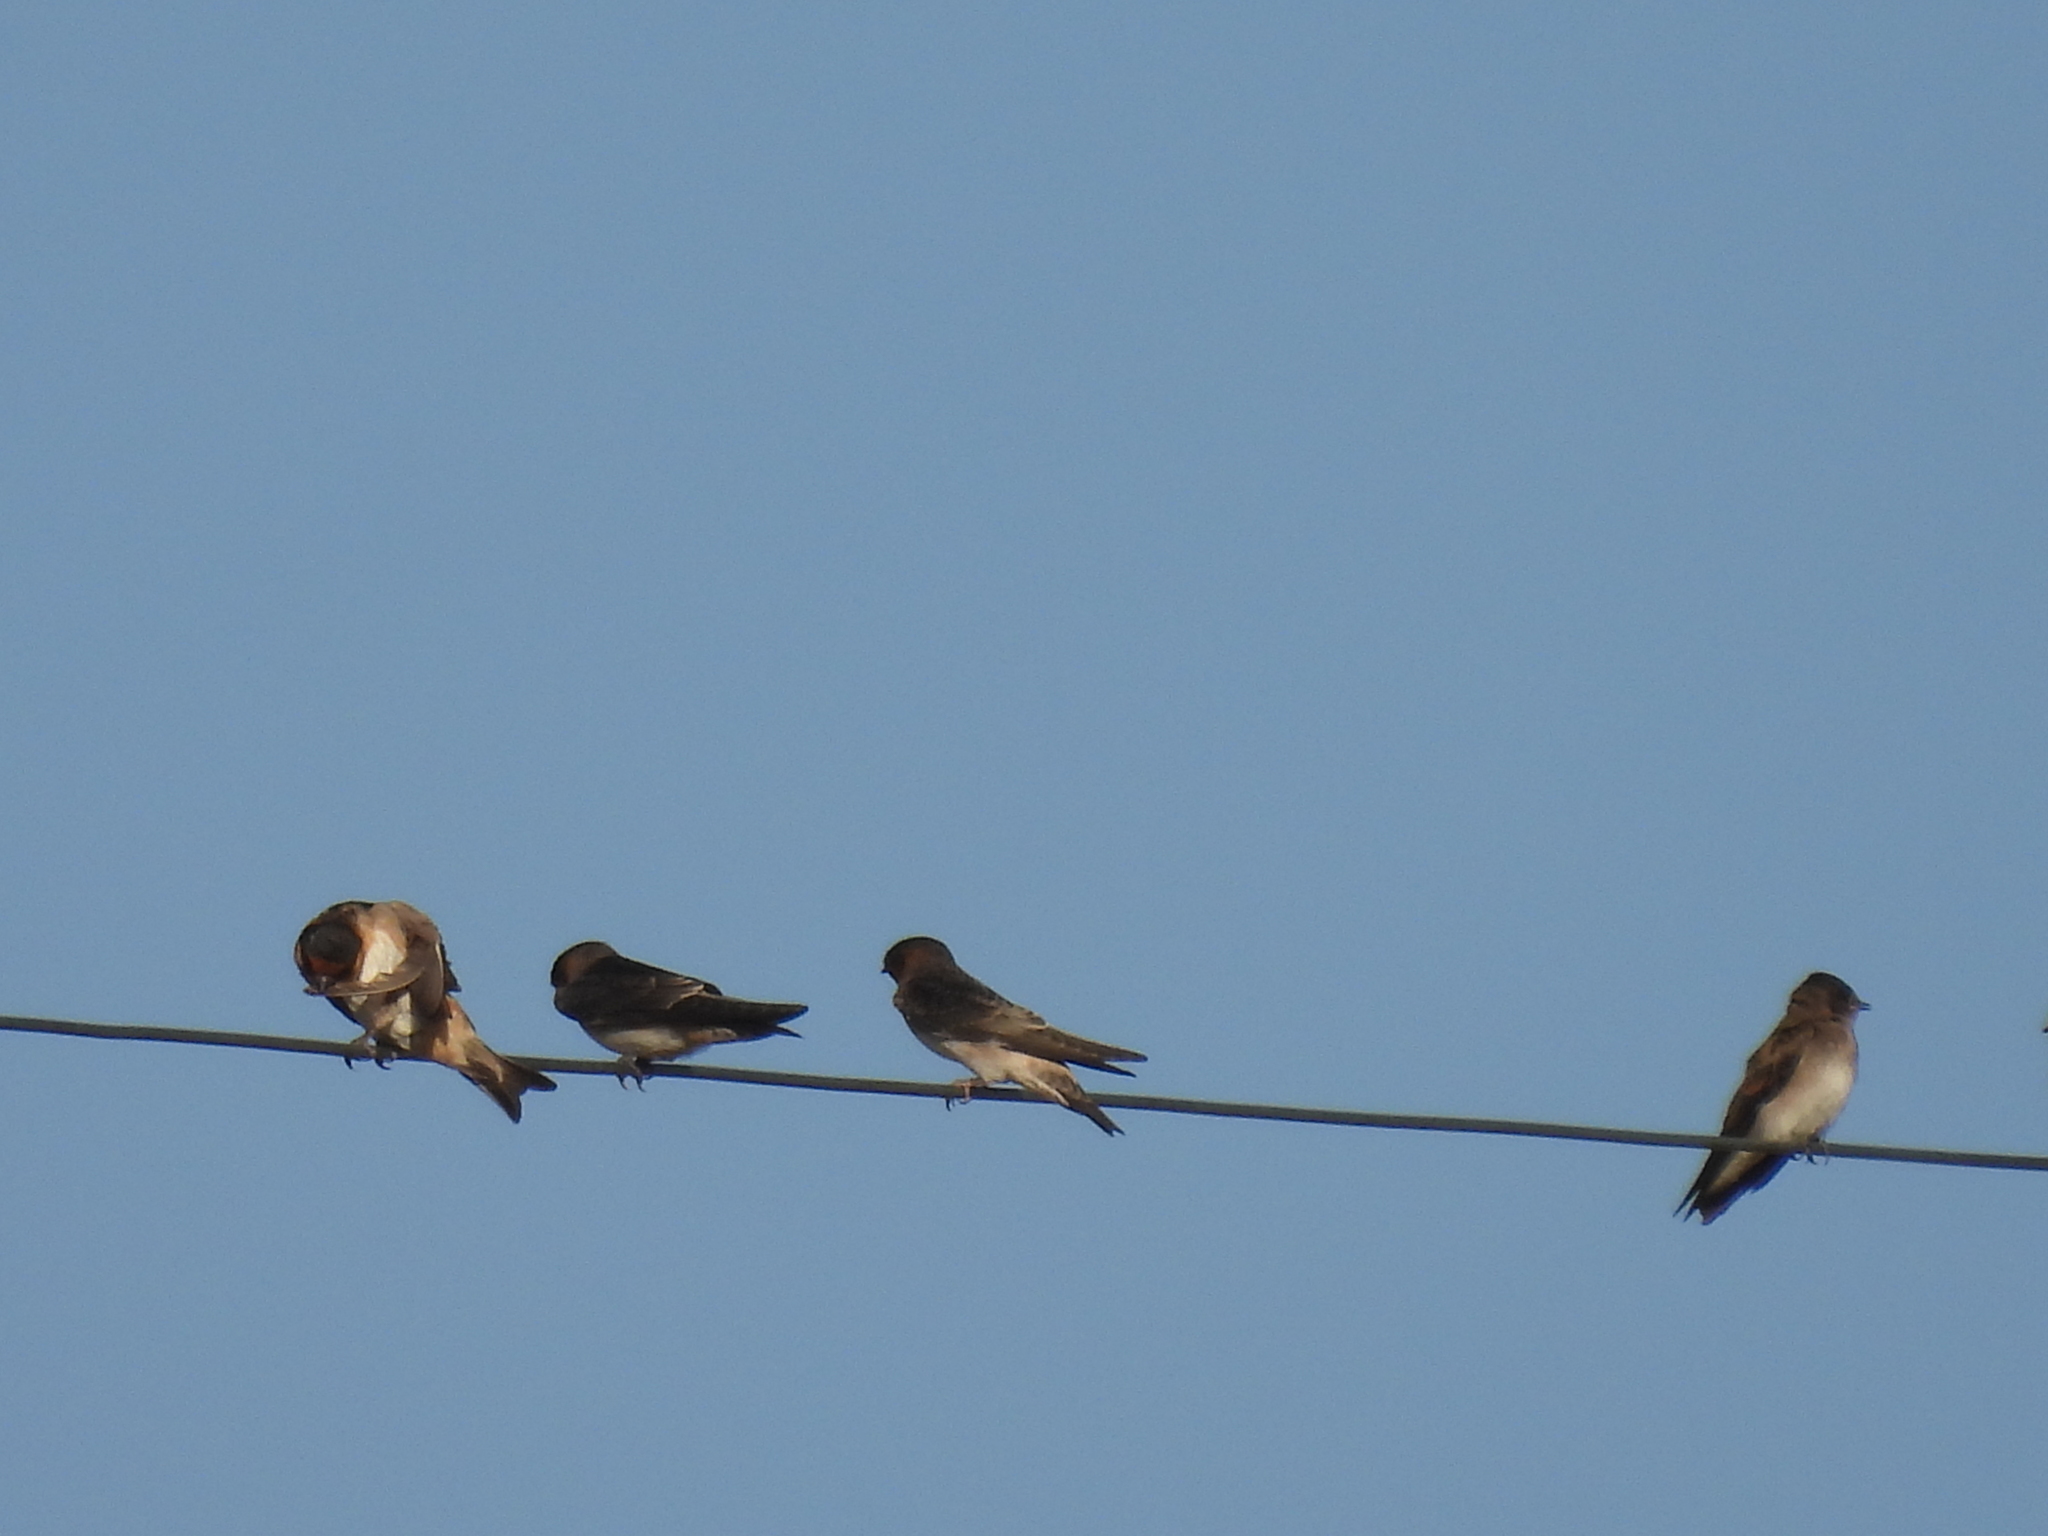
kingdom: Animalia
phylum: Chordata
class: Aves
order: Passeriformes
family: Hirundinidae
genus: Stelgidopteryx
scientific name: Stelgidopteryx serripennis
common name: Northern rough-winged swallow
